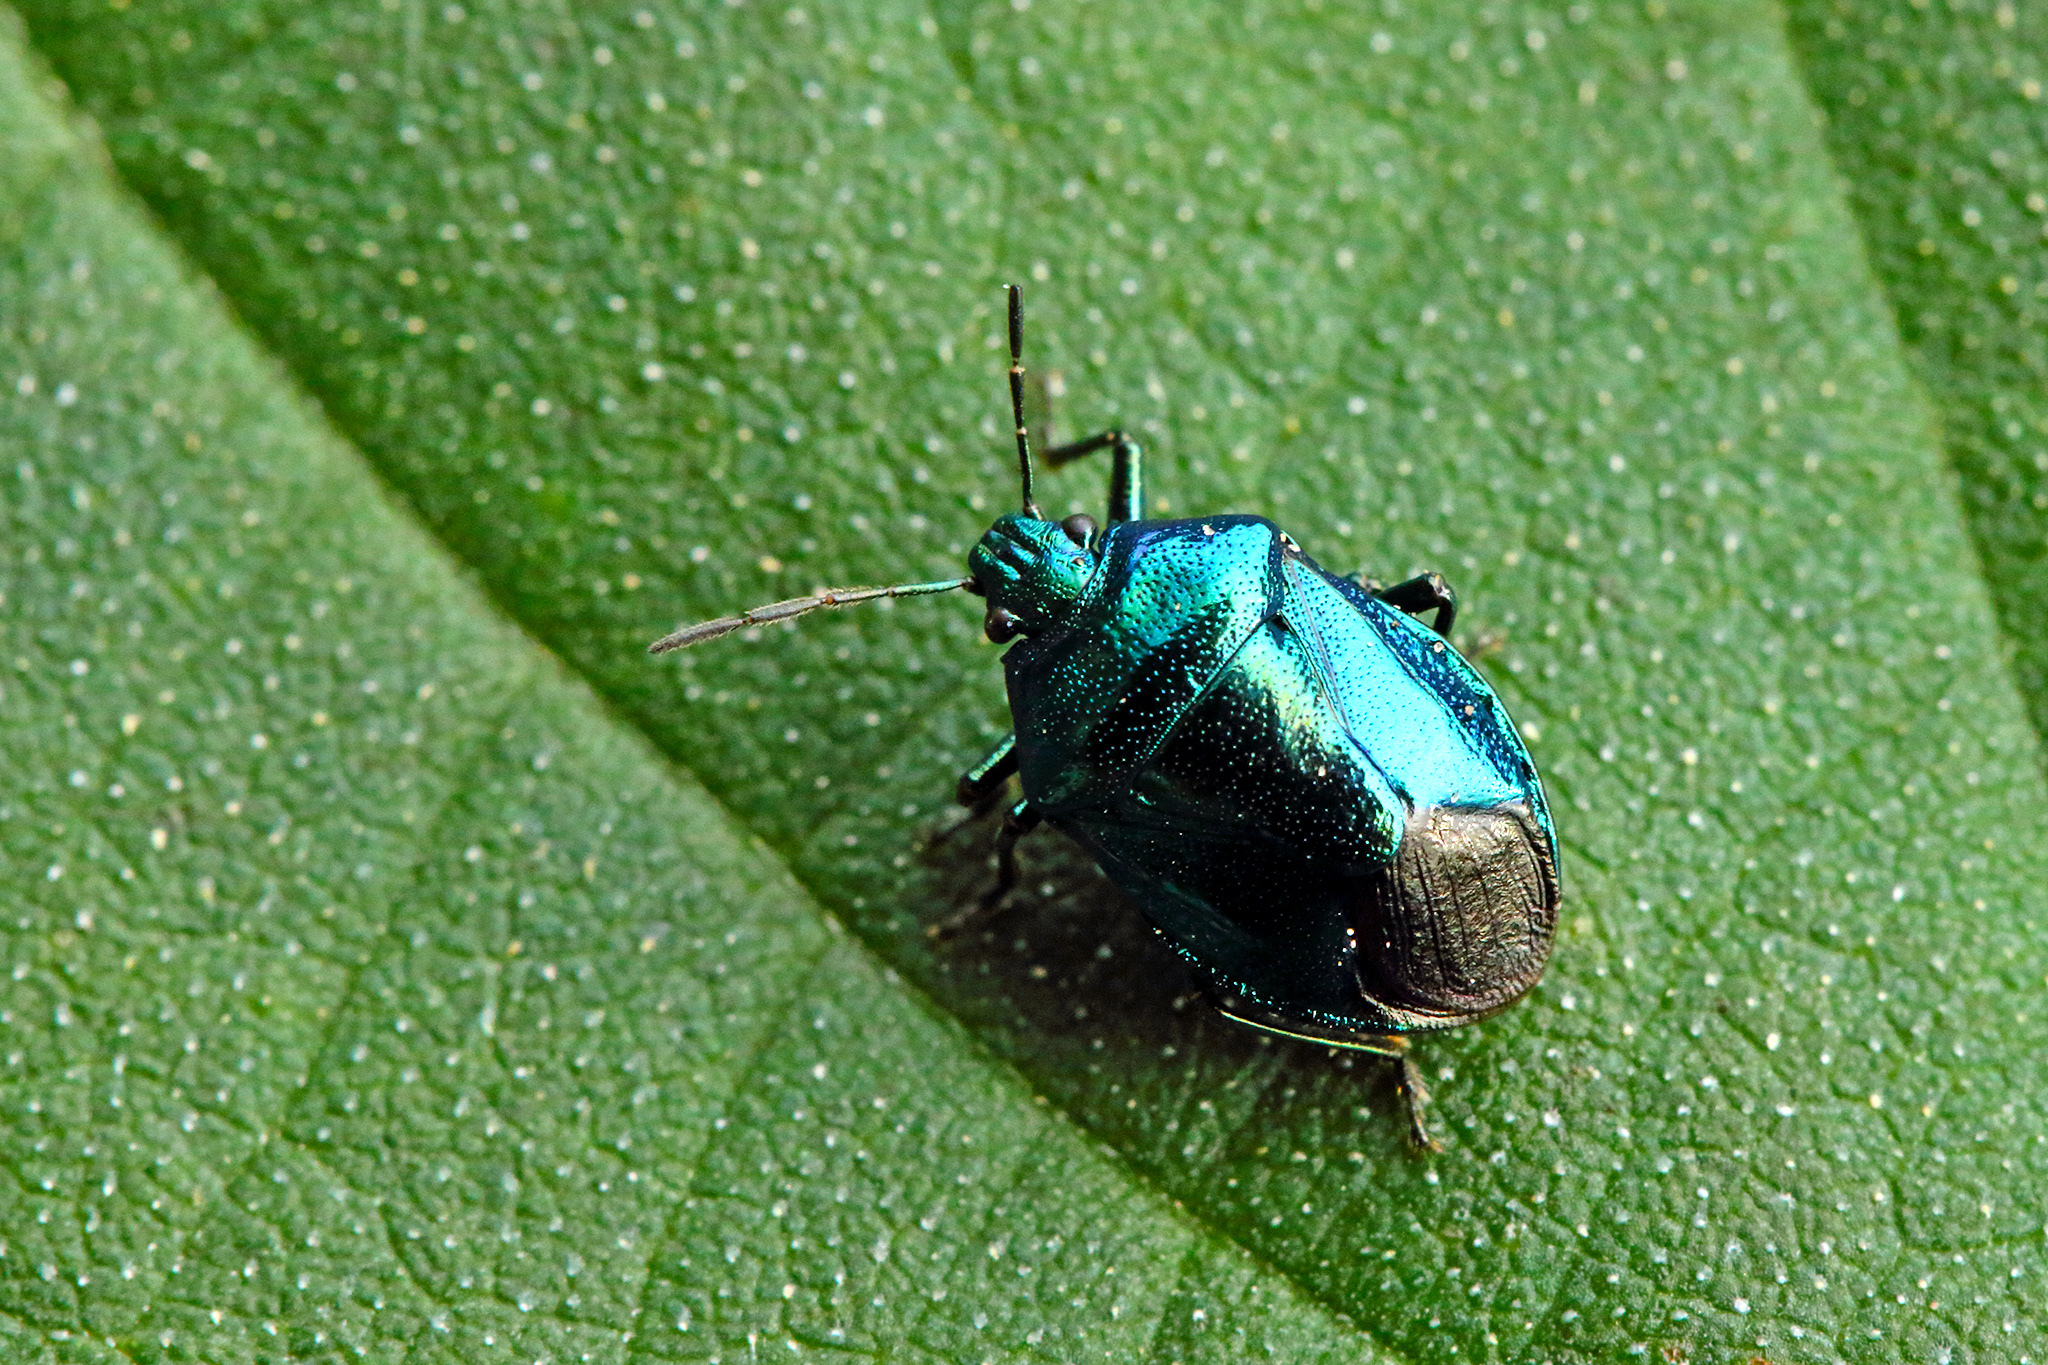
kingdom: Animalia
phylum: Arthropoda
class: Insecta
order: Hemiptera
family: Pentatomidae
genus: Zicrona
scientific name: Zicrona caerulea
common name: Blue shieldbug
